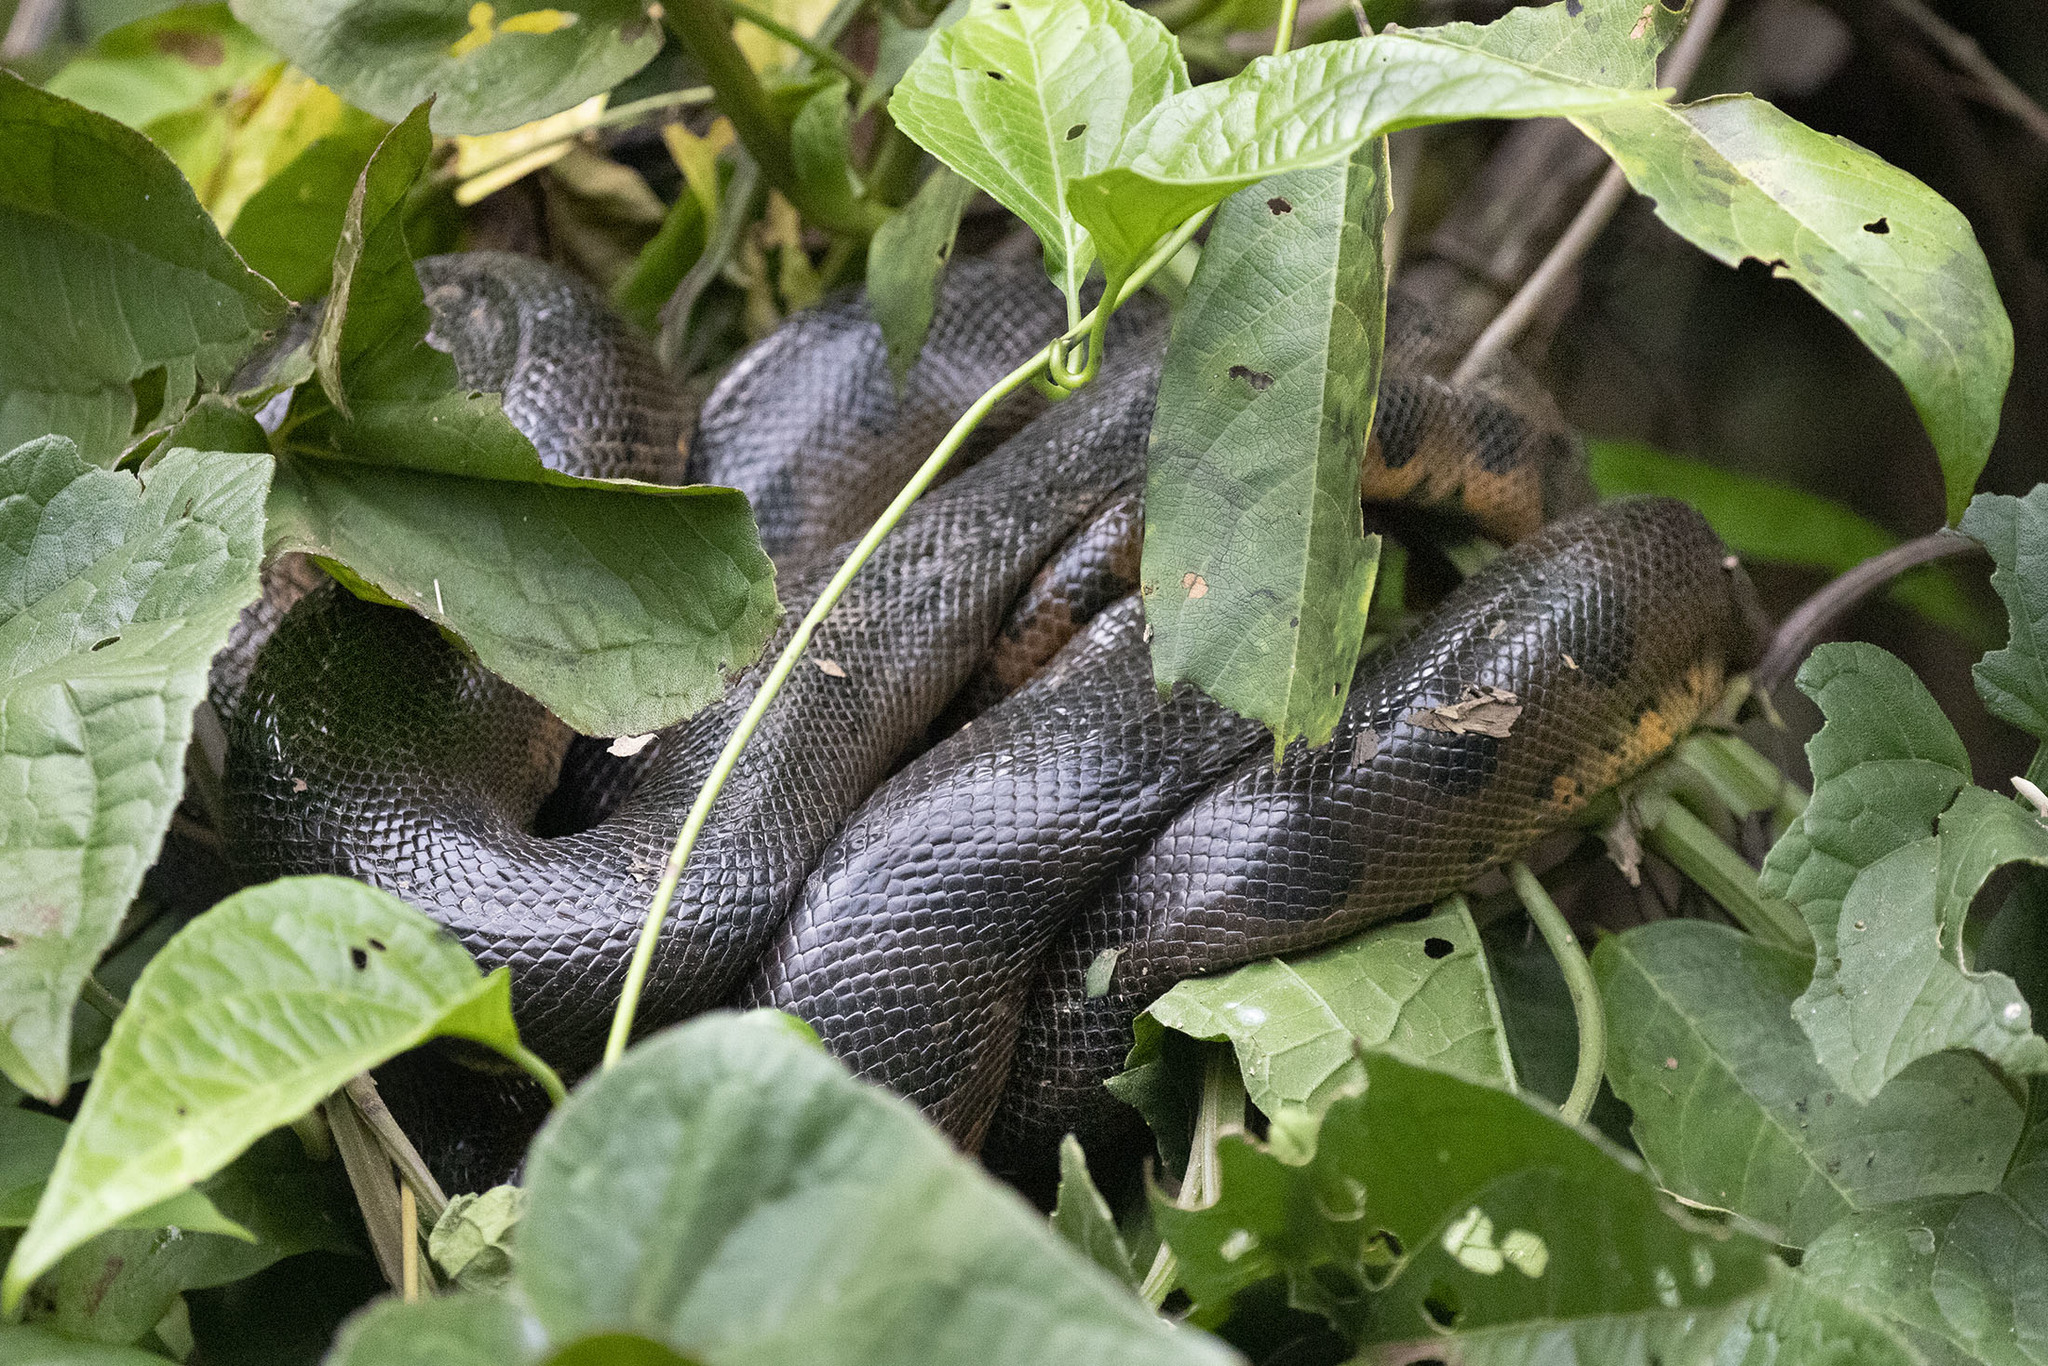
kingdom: Animalia
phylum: Chordata
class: Squamata
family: Boidae
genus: Eunectes
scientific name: Eunectes murinus
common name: Anaconda
